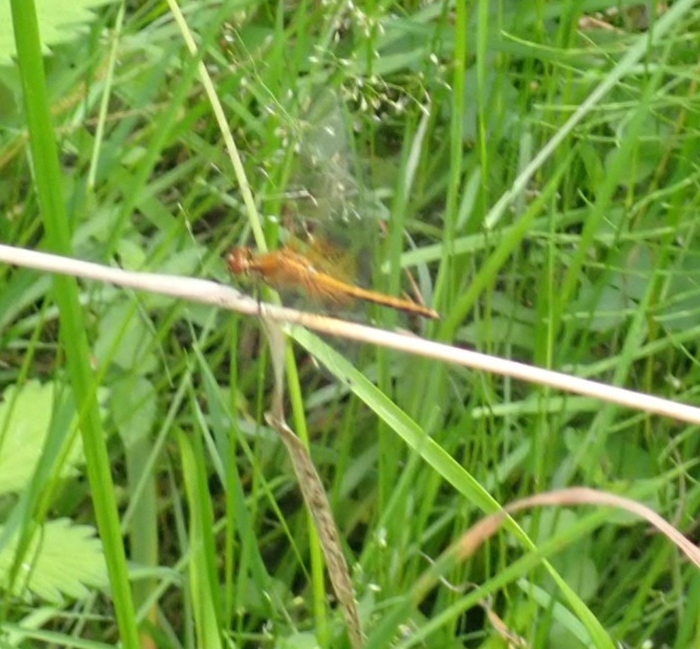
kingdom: Animalia
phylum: Arthropoda
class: Insecta
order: Odonata
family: Libellulidae
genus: Sympetrum
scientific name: Sympetrum flaveolum
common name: Yellow-winged darter
